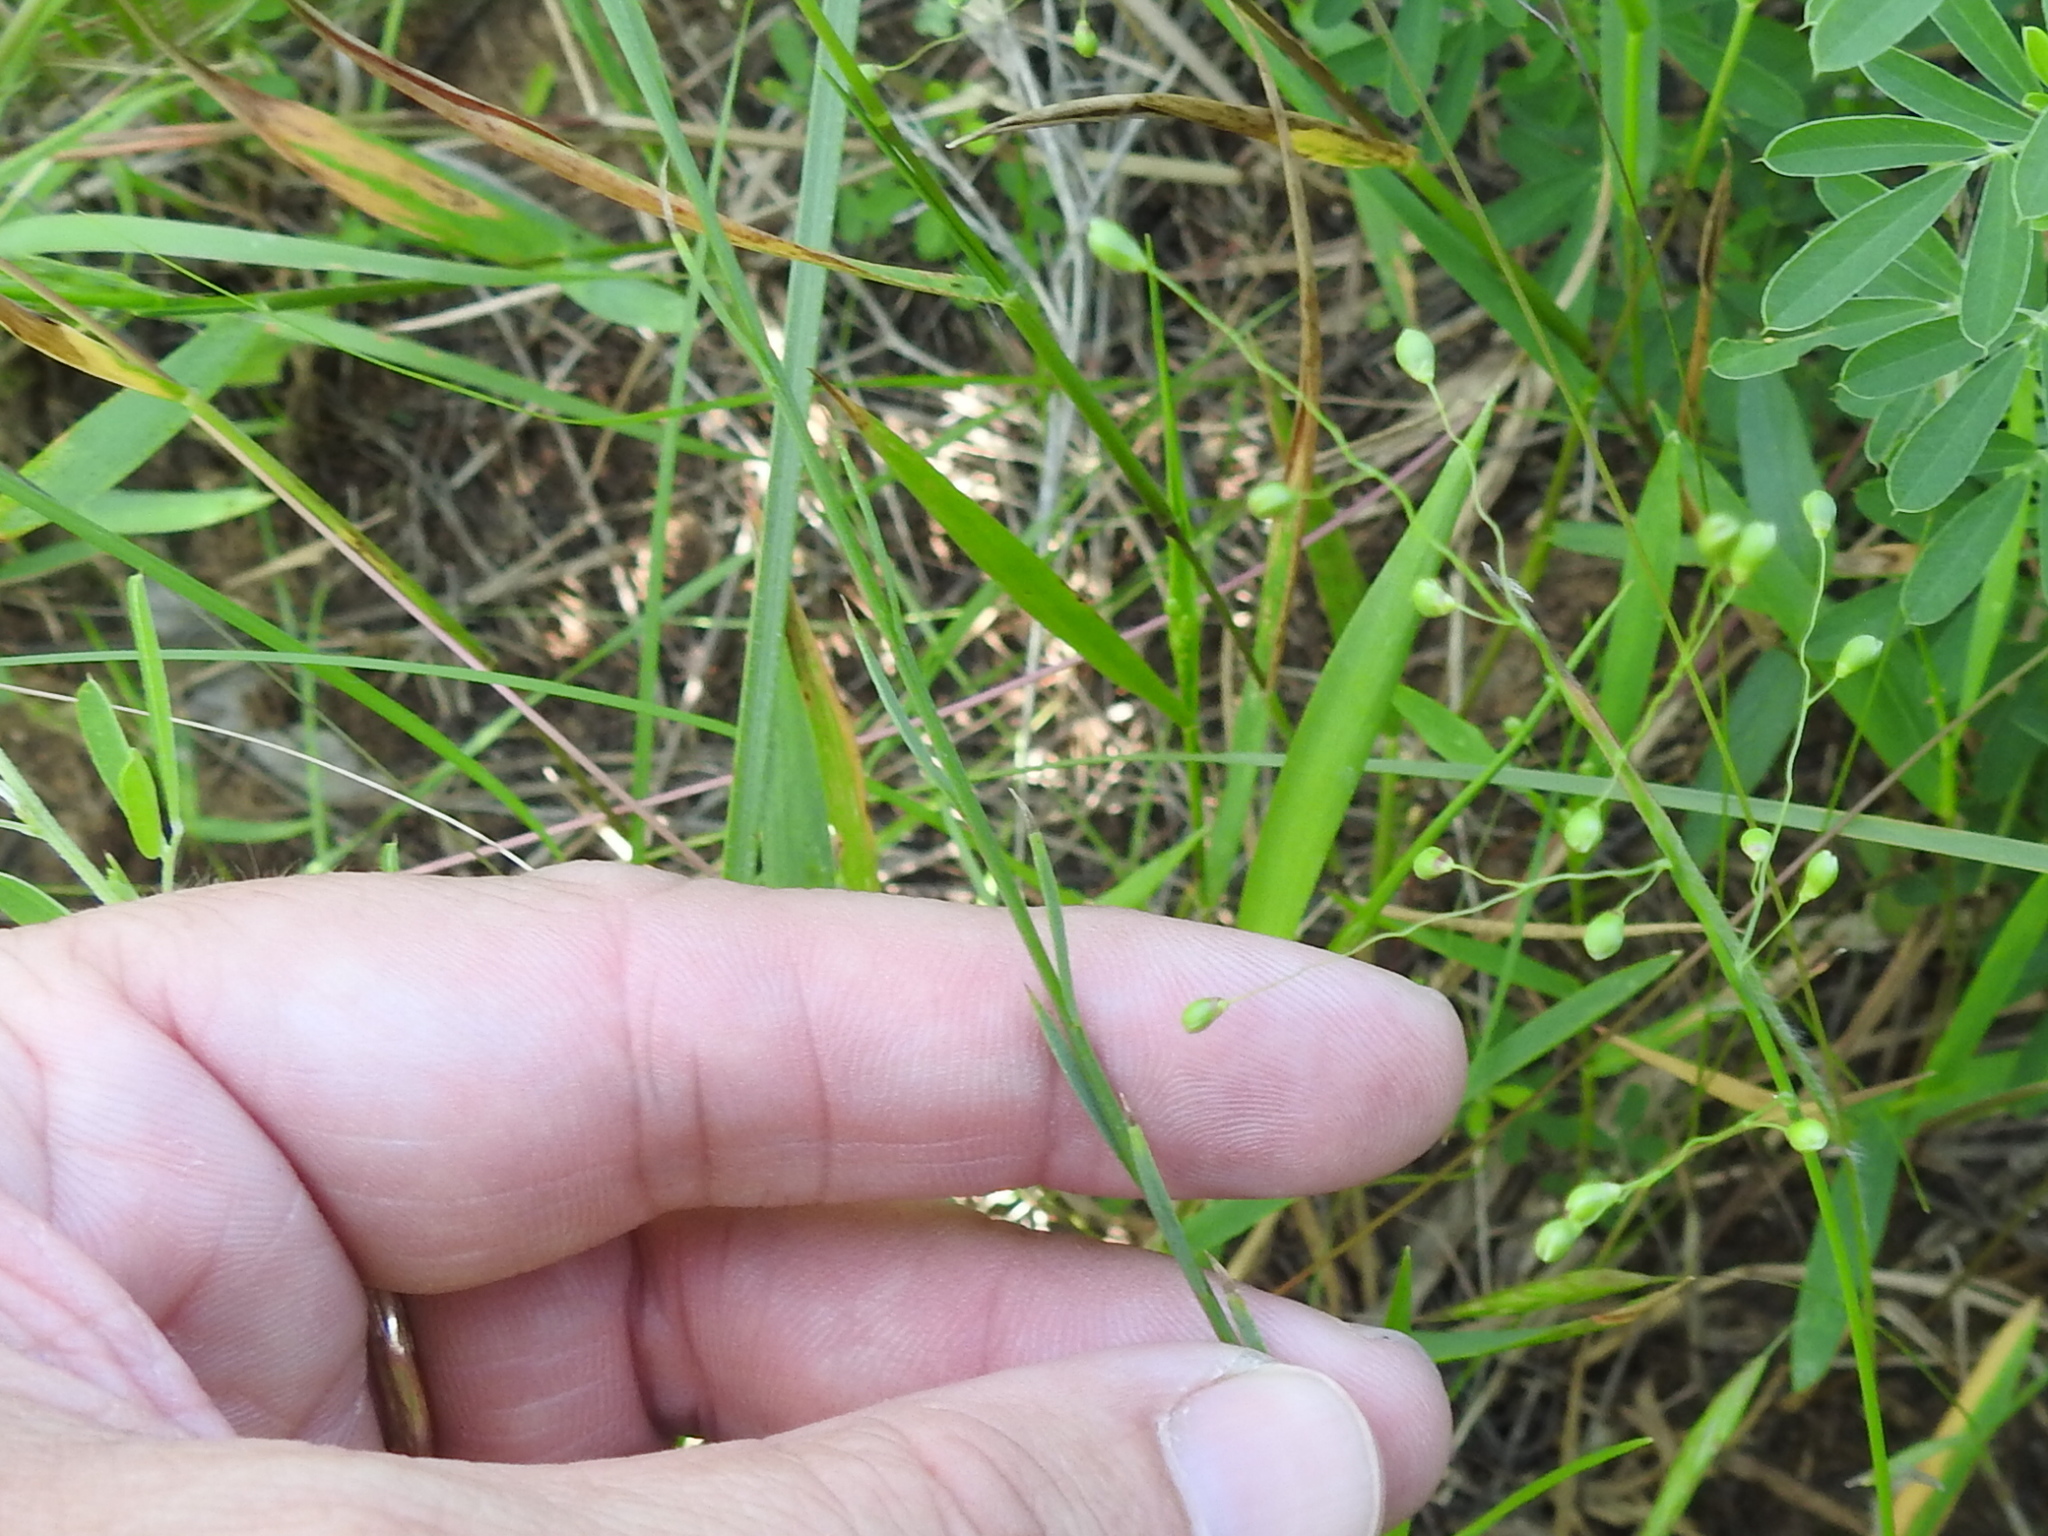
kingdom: Plantae
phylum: Tracheophyta
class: Magnoliopsida
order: Malpighiales
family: Linaceae
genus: Linum
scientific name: Linum sulcatum
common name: Grooved flax
